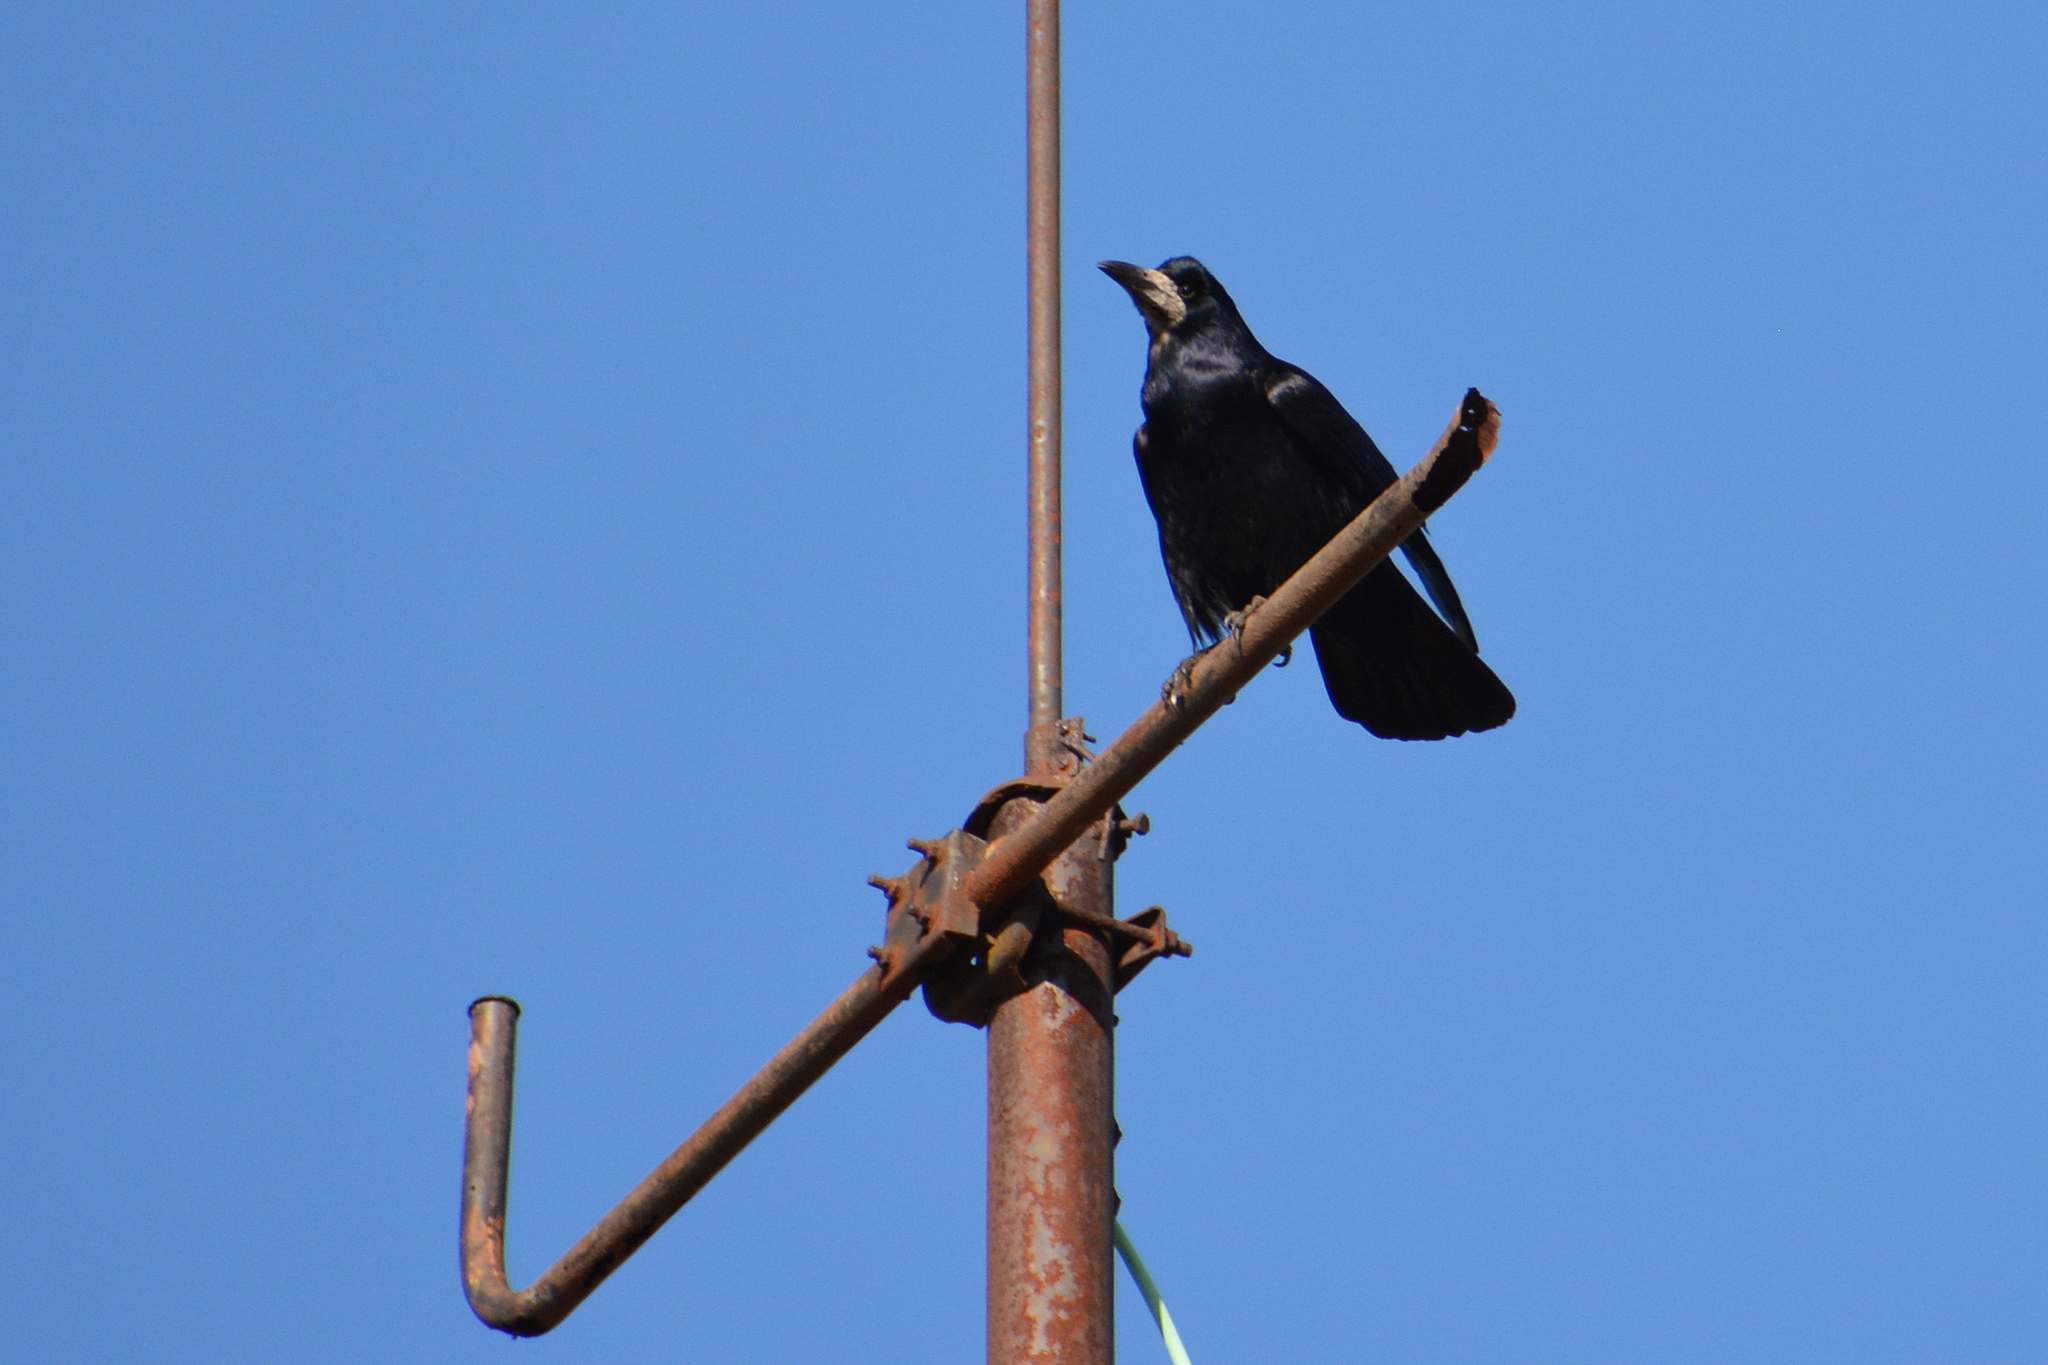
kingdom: Animalia
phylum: Chordata
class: Aves
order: Passeriformes
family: Corvidae
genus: Corvus
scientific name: Corvus frugilegus
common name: Rook
